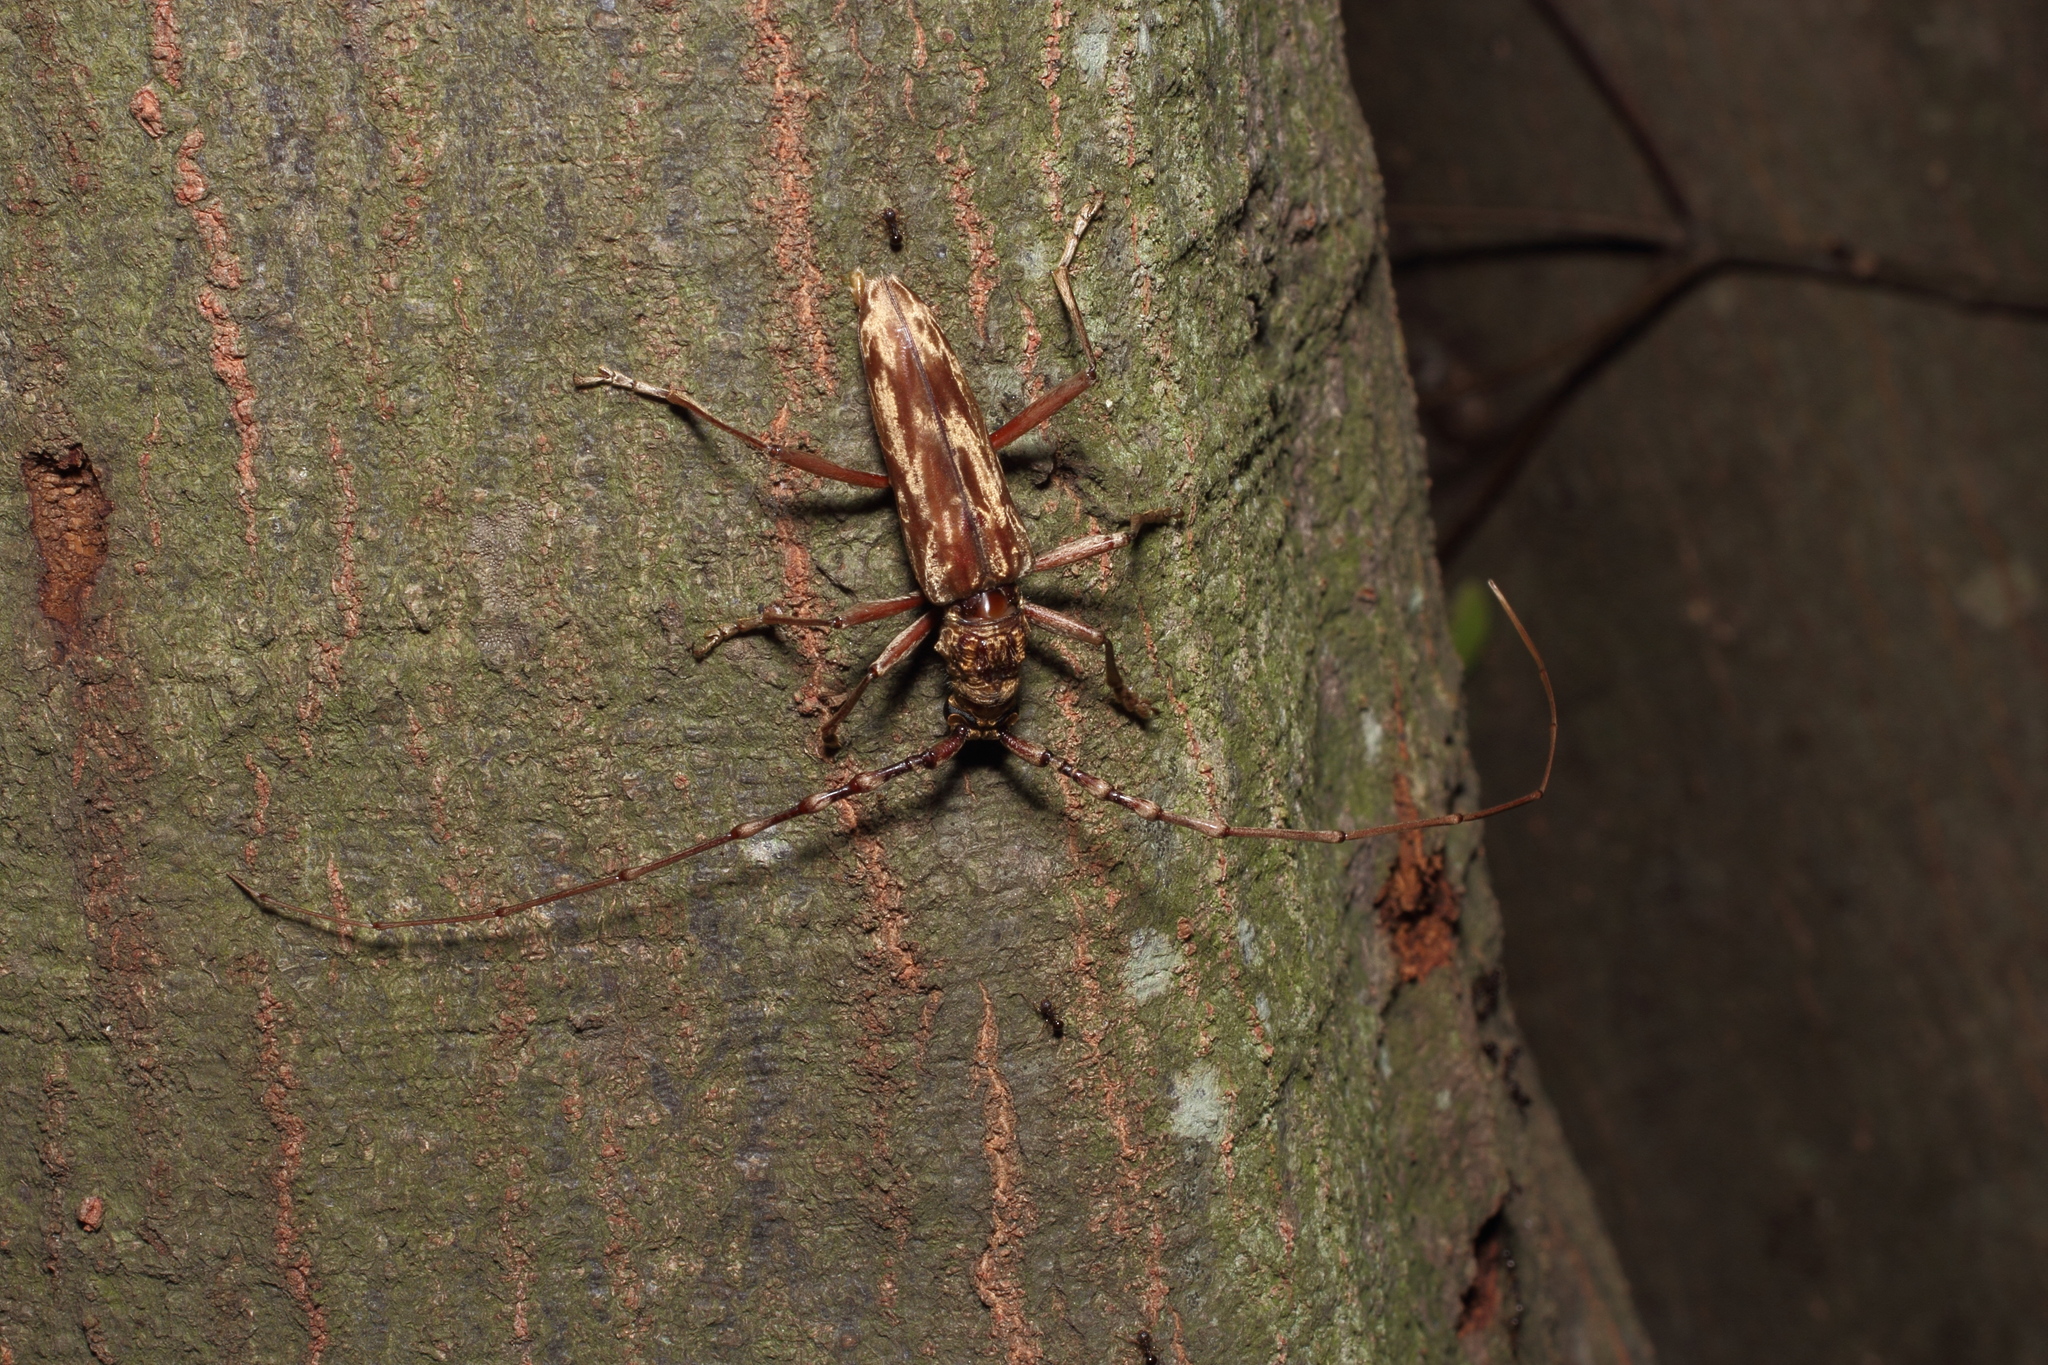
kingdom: Animalia
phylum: Arthropoda
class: Insecta
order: Coleoptera
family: Cerambycidae
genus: Aeolesthes
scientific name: Aeolesthes chrysothrix
